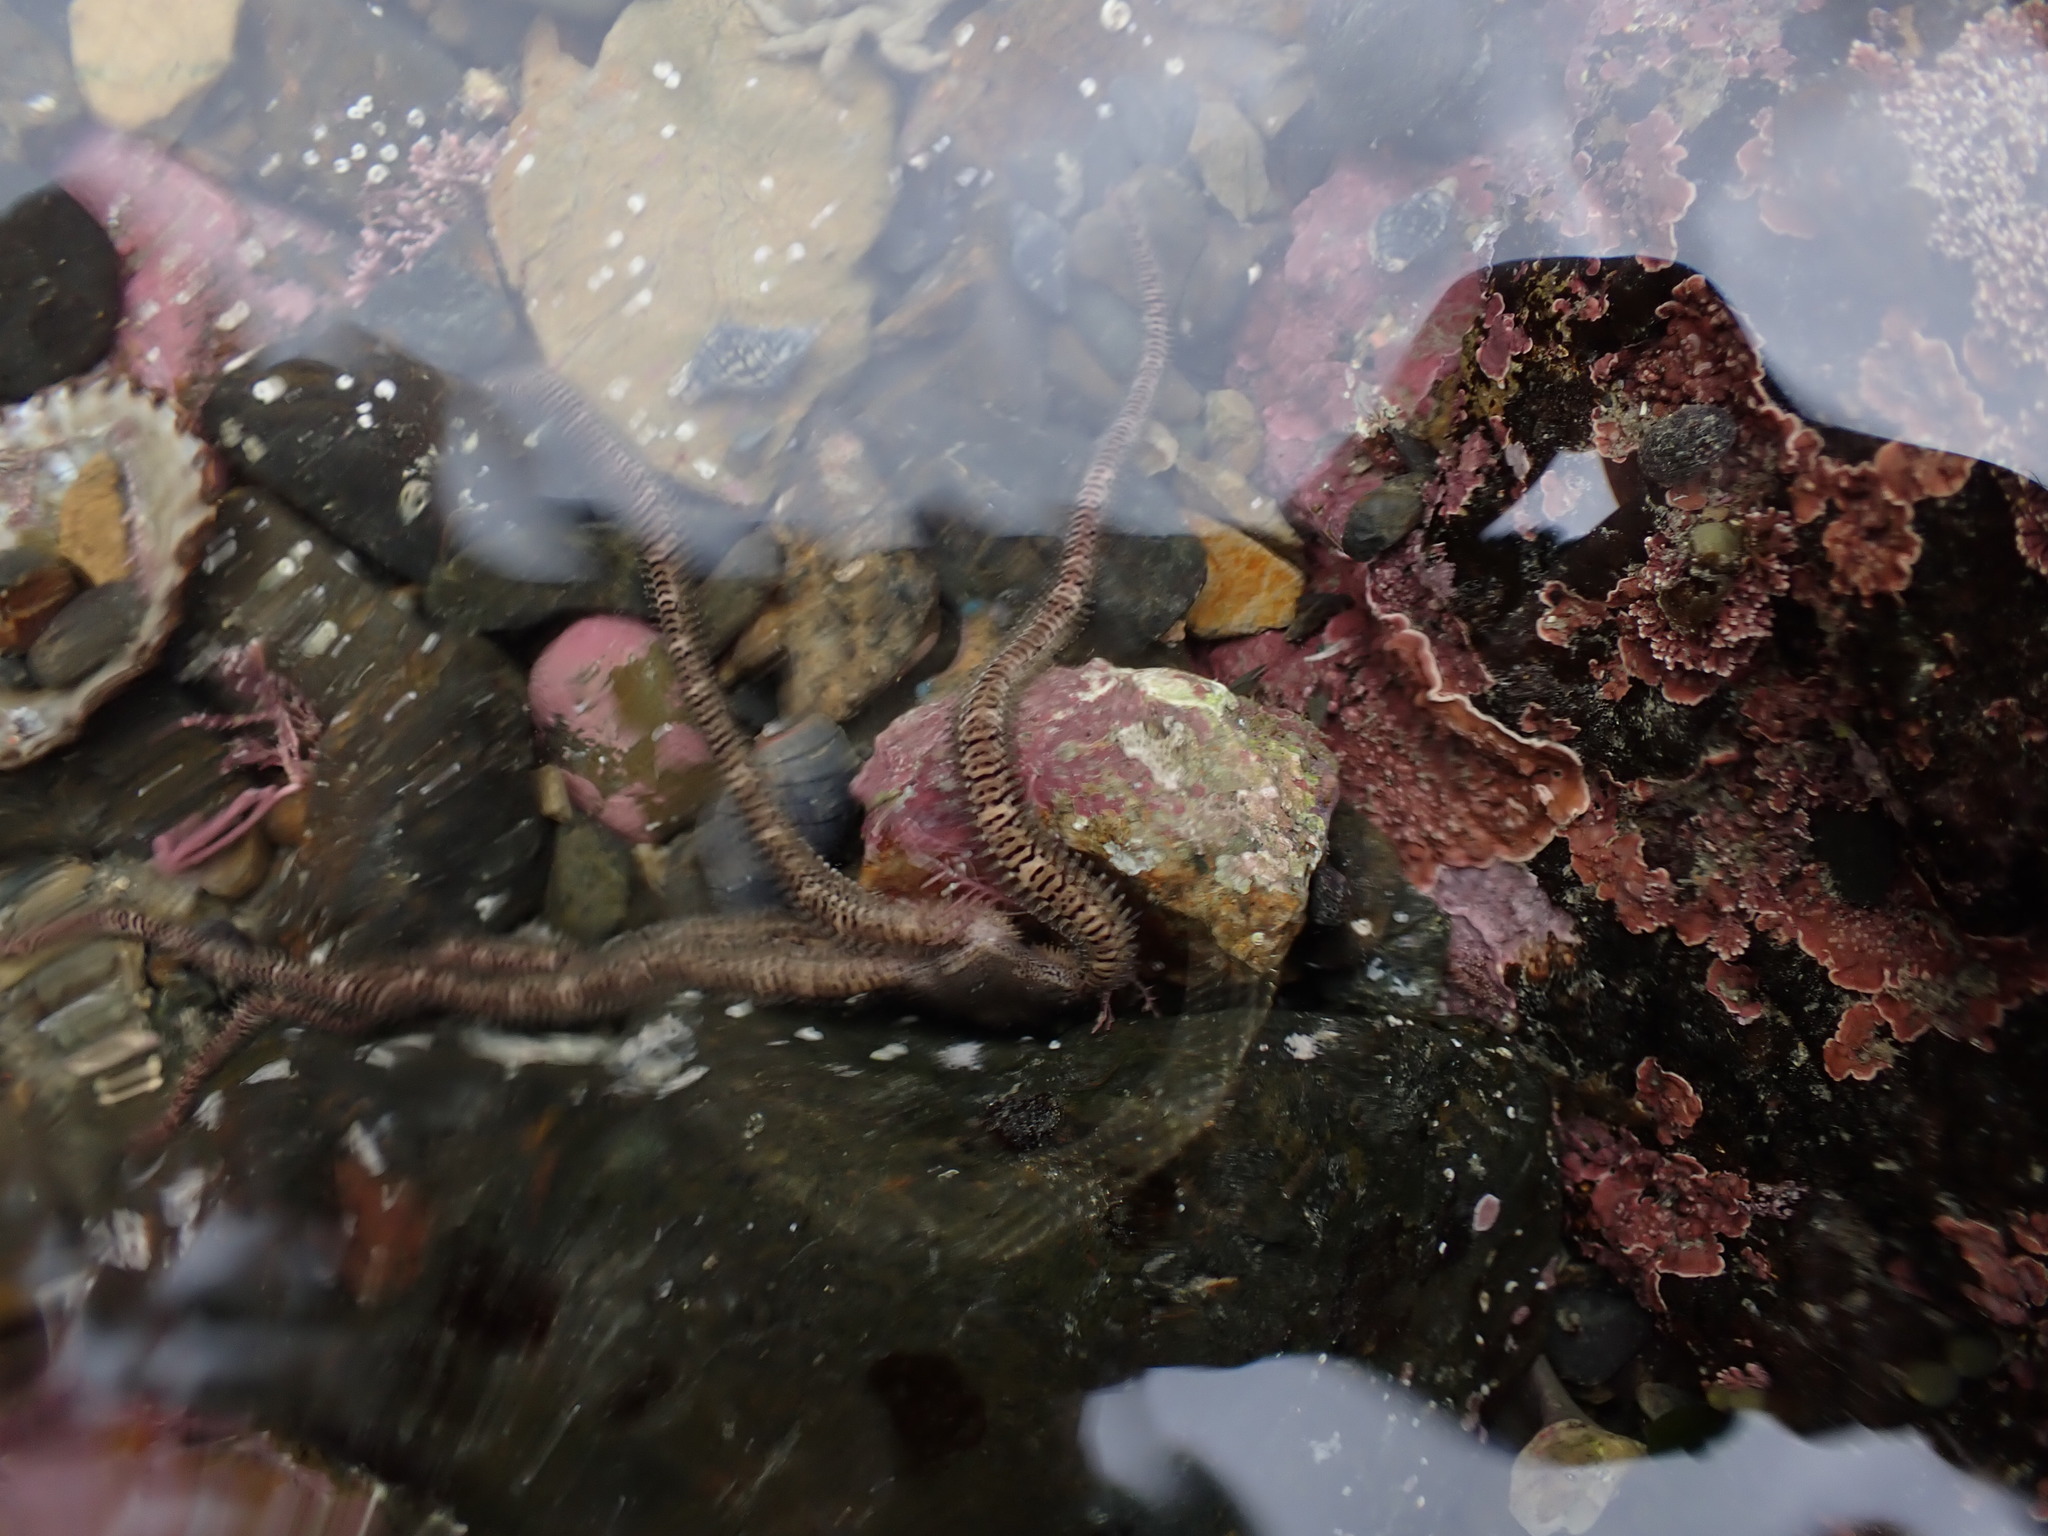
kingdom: Animalia
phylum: Echinodermata
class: Ophiuroidea
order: Amphilepidida
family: Ophionereididae
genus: Ophionereis
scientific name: Ophionereis fasciata
